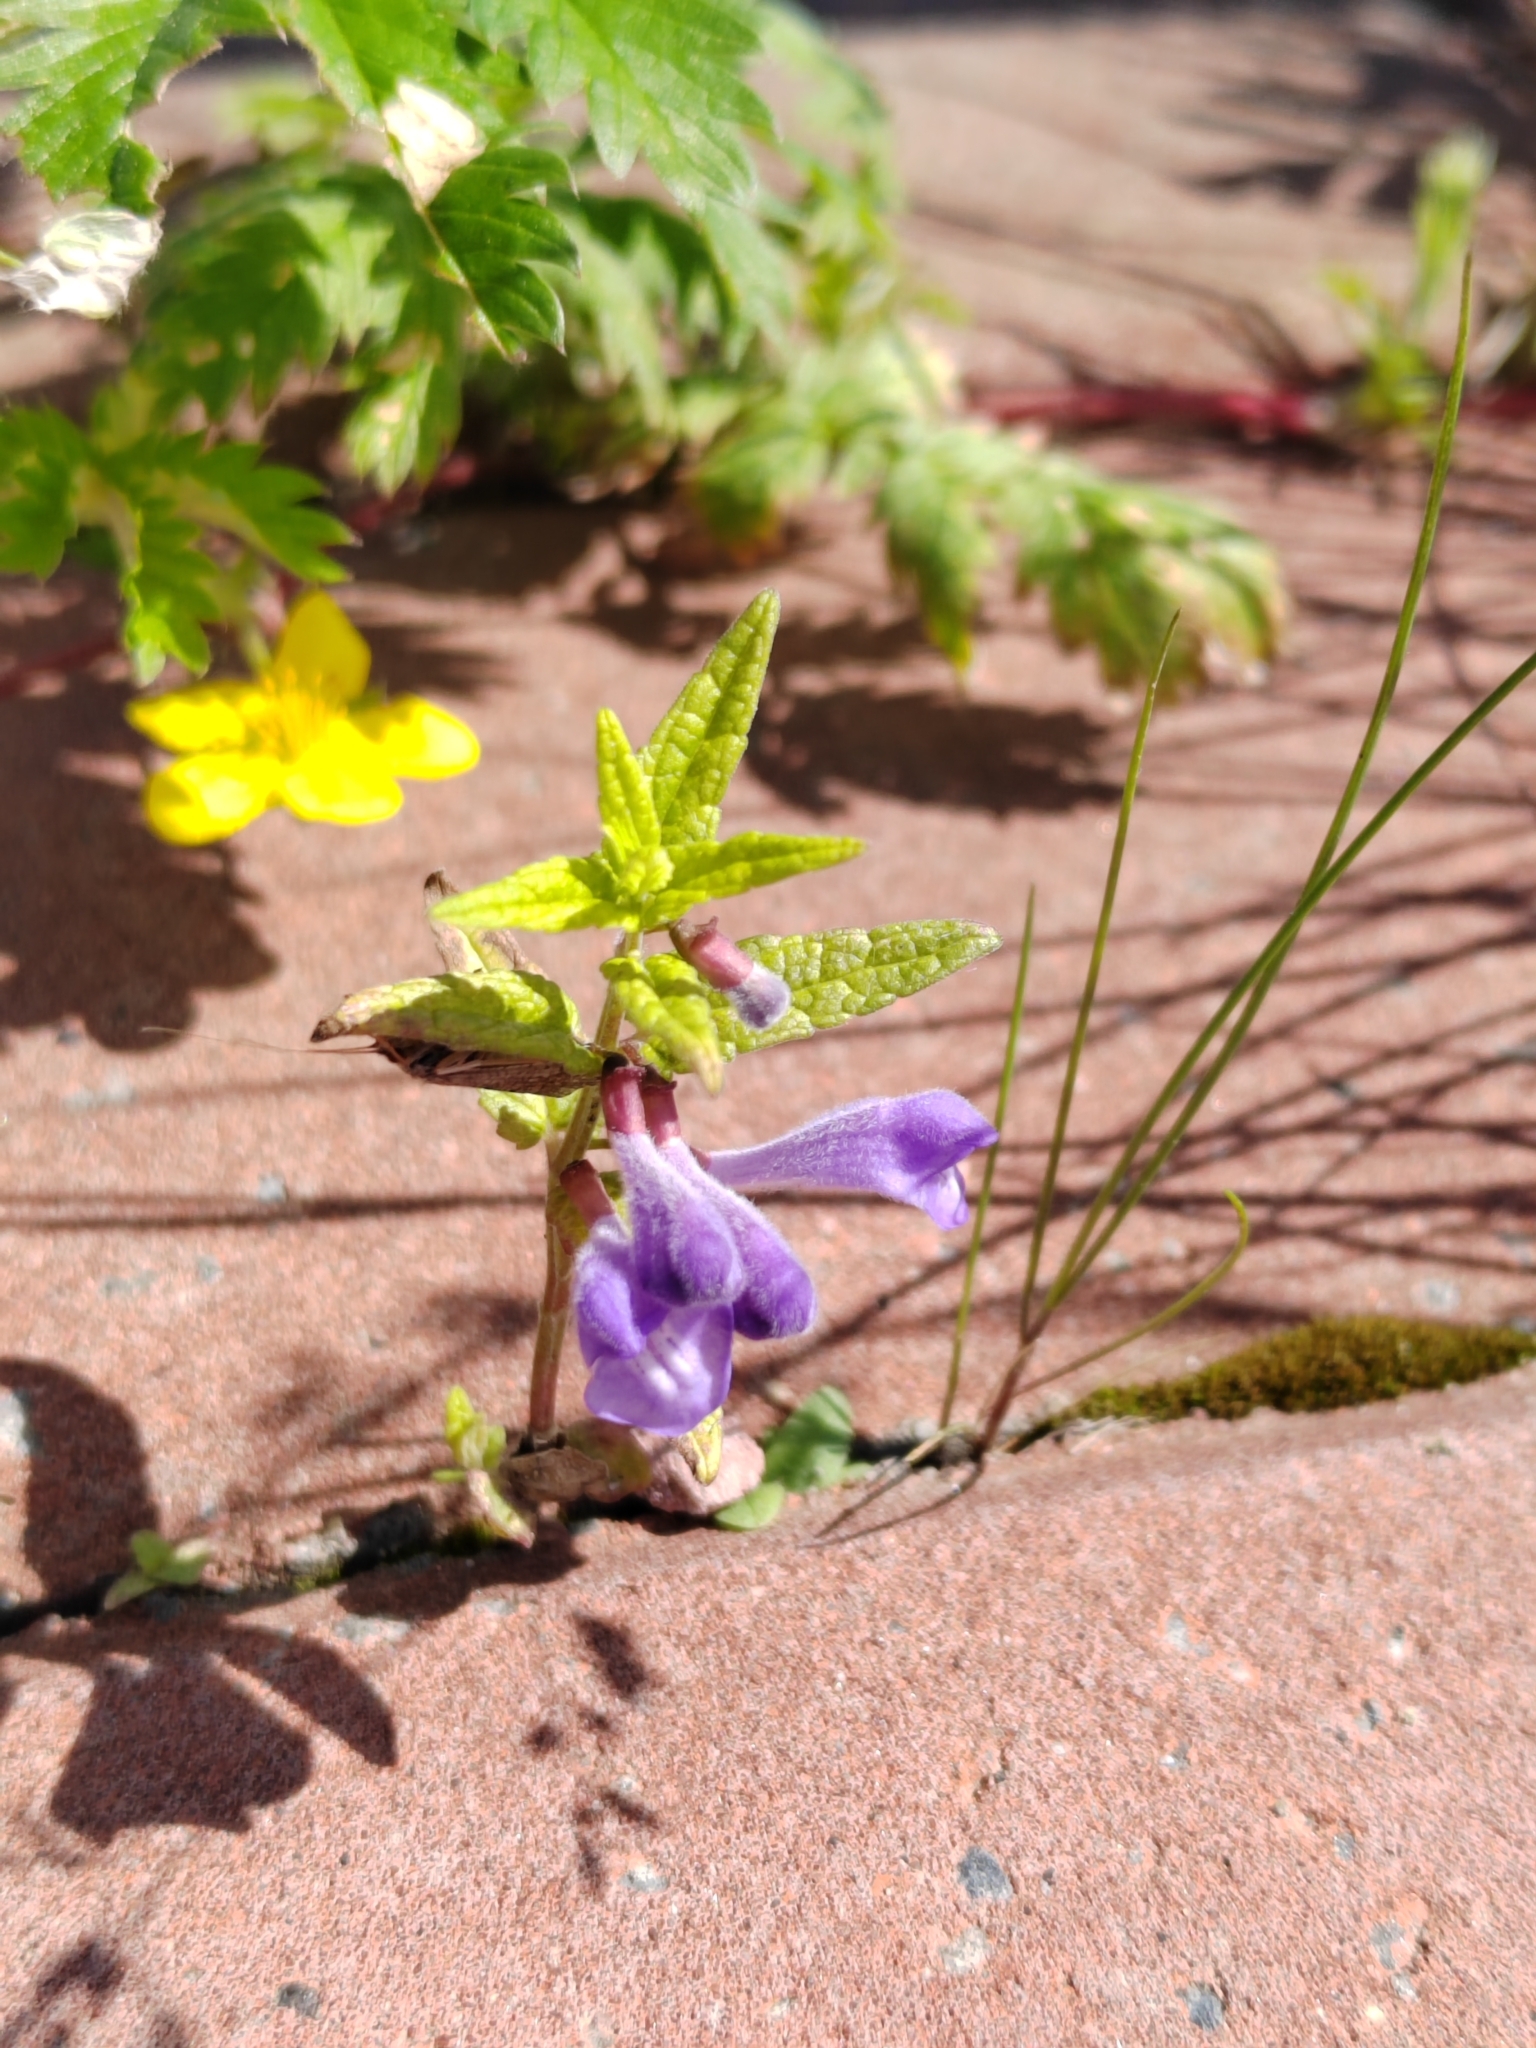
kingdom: Plantae
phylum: Tracheophyta
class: Magnoliopsida
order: Lamiales
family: Lamiaceae
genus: Scutellaria
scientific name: Scutellaria galericulata
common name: Skullcap
